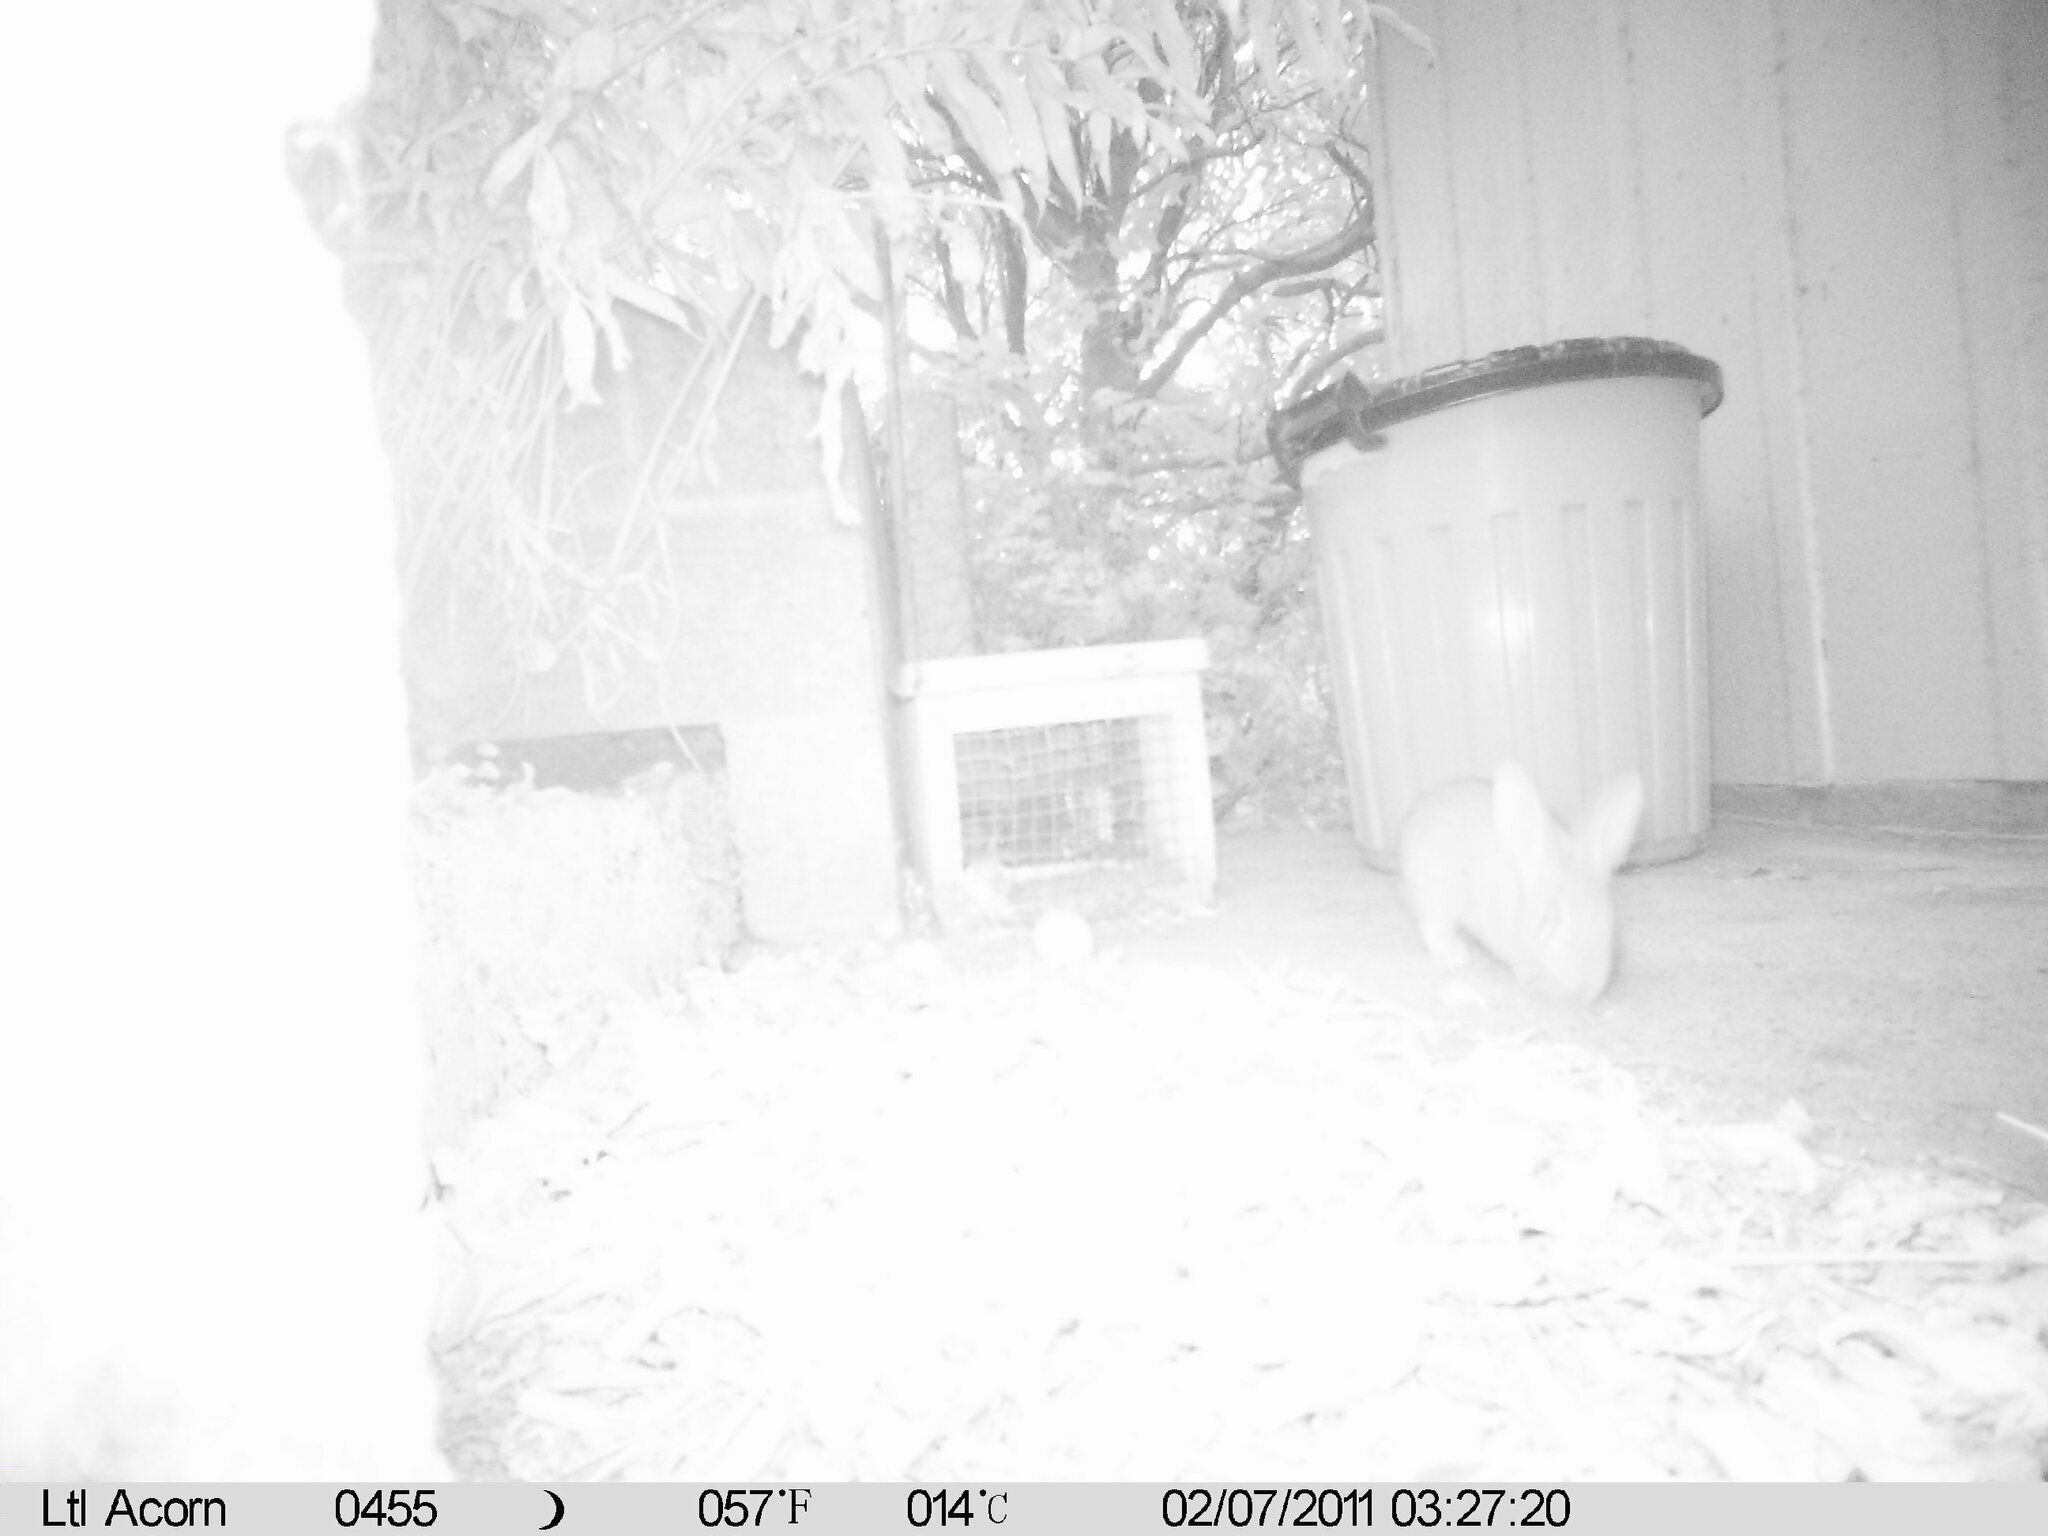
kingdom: Animalia
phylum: Chordata
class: Mammalia
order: Lagomorpha
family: Leporidae
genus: Oryctolagus
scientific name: Oryctolagus cuniculus
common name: European rabbit
